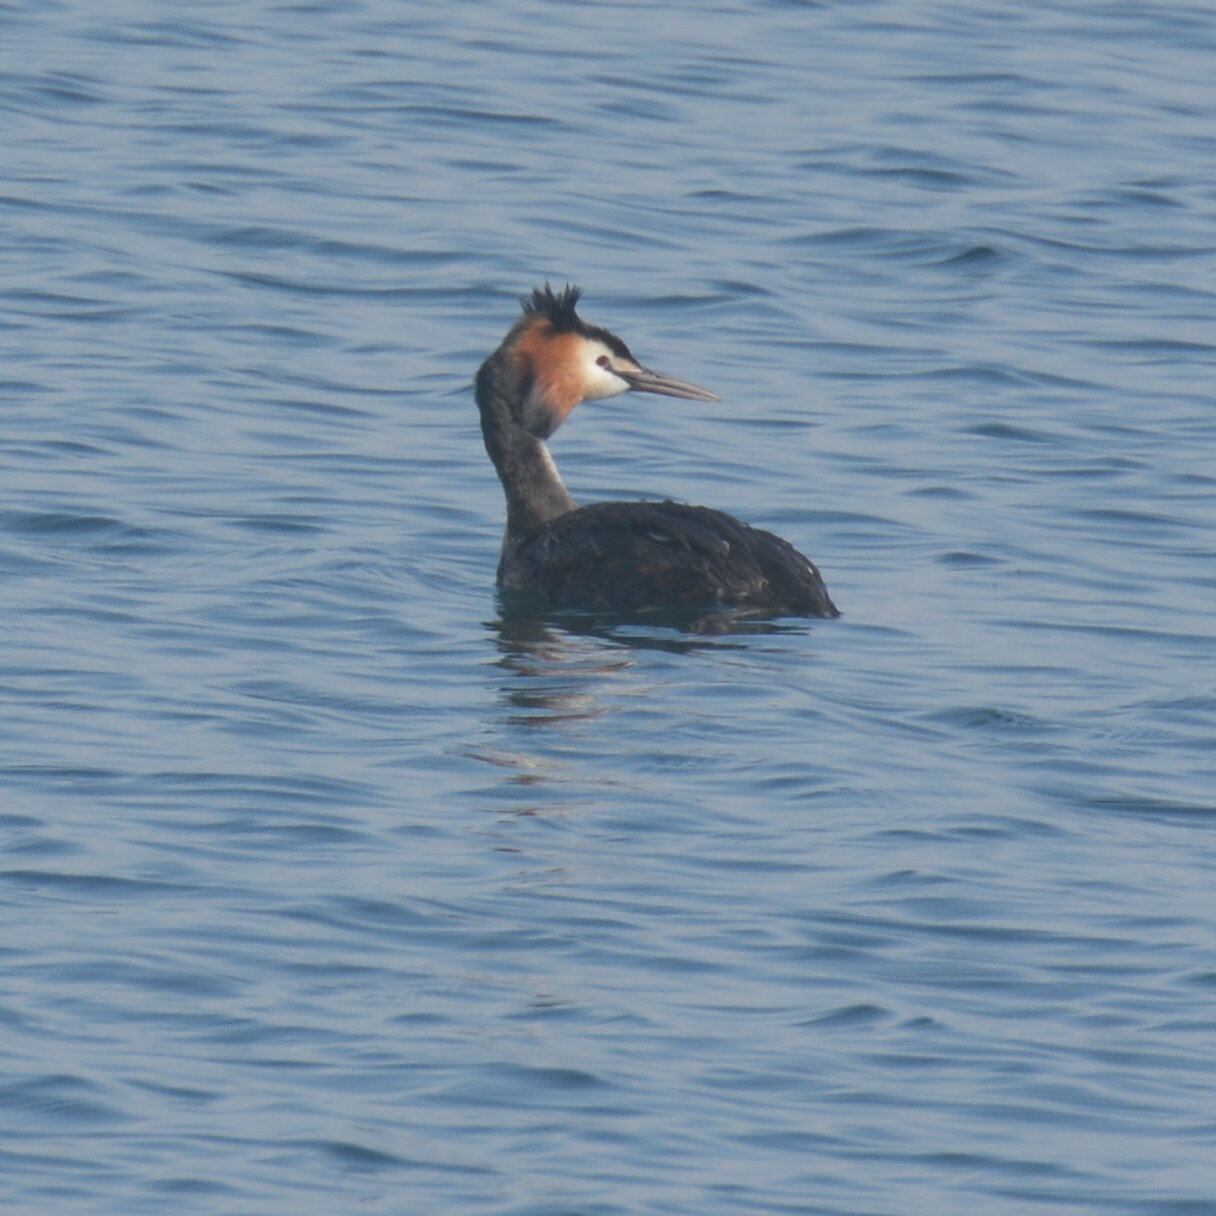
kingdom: Animalia
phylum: Chordata
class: Aves
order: Podicipediformes
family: Podicipedidae
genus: Podiceps
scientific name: Podiceps cristatus
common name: Great crested grebe
